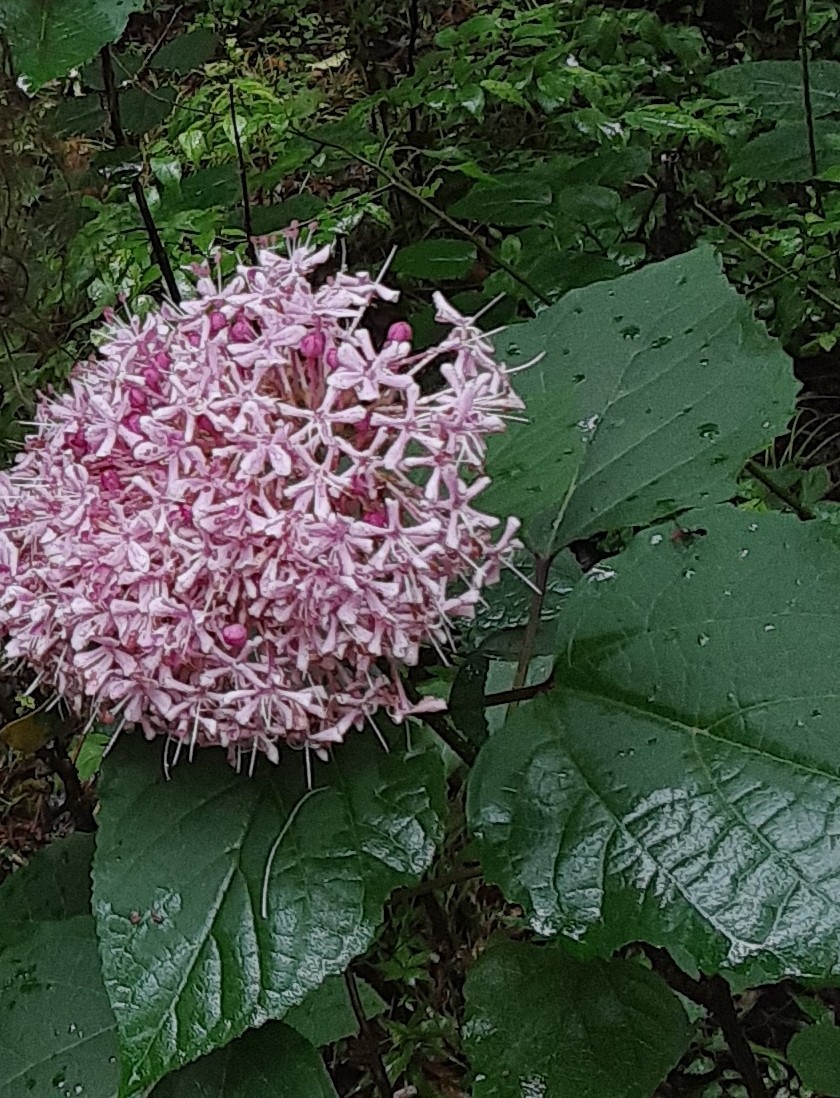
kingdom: Plantae
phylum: Tracheophyta
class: Magnoliopsida
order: Lamiales
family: Lamiaceae
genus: Clerodendrum
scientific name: Clerodendrum bungei
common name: Rose glorybower
